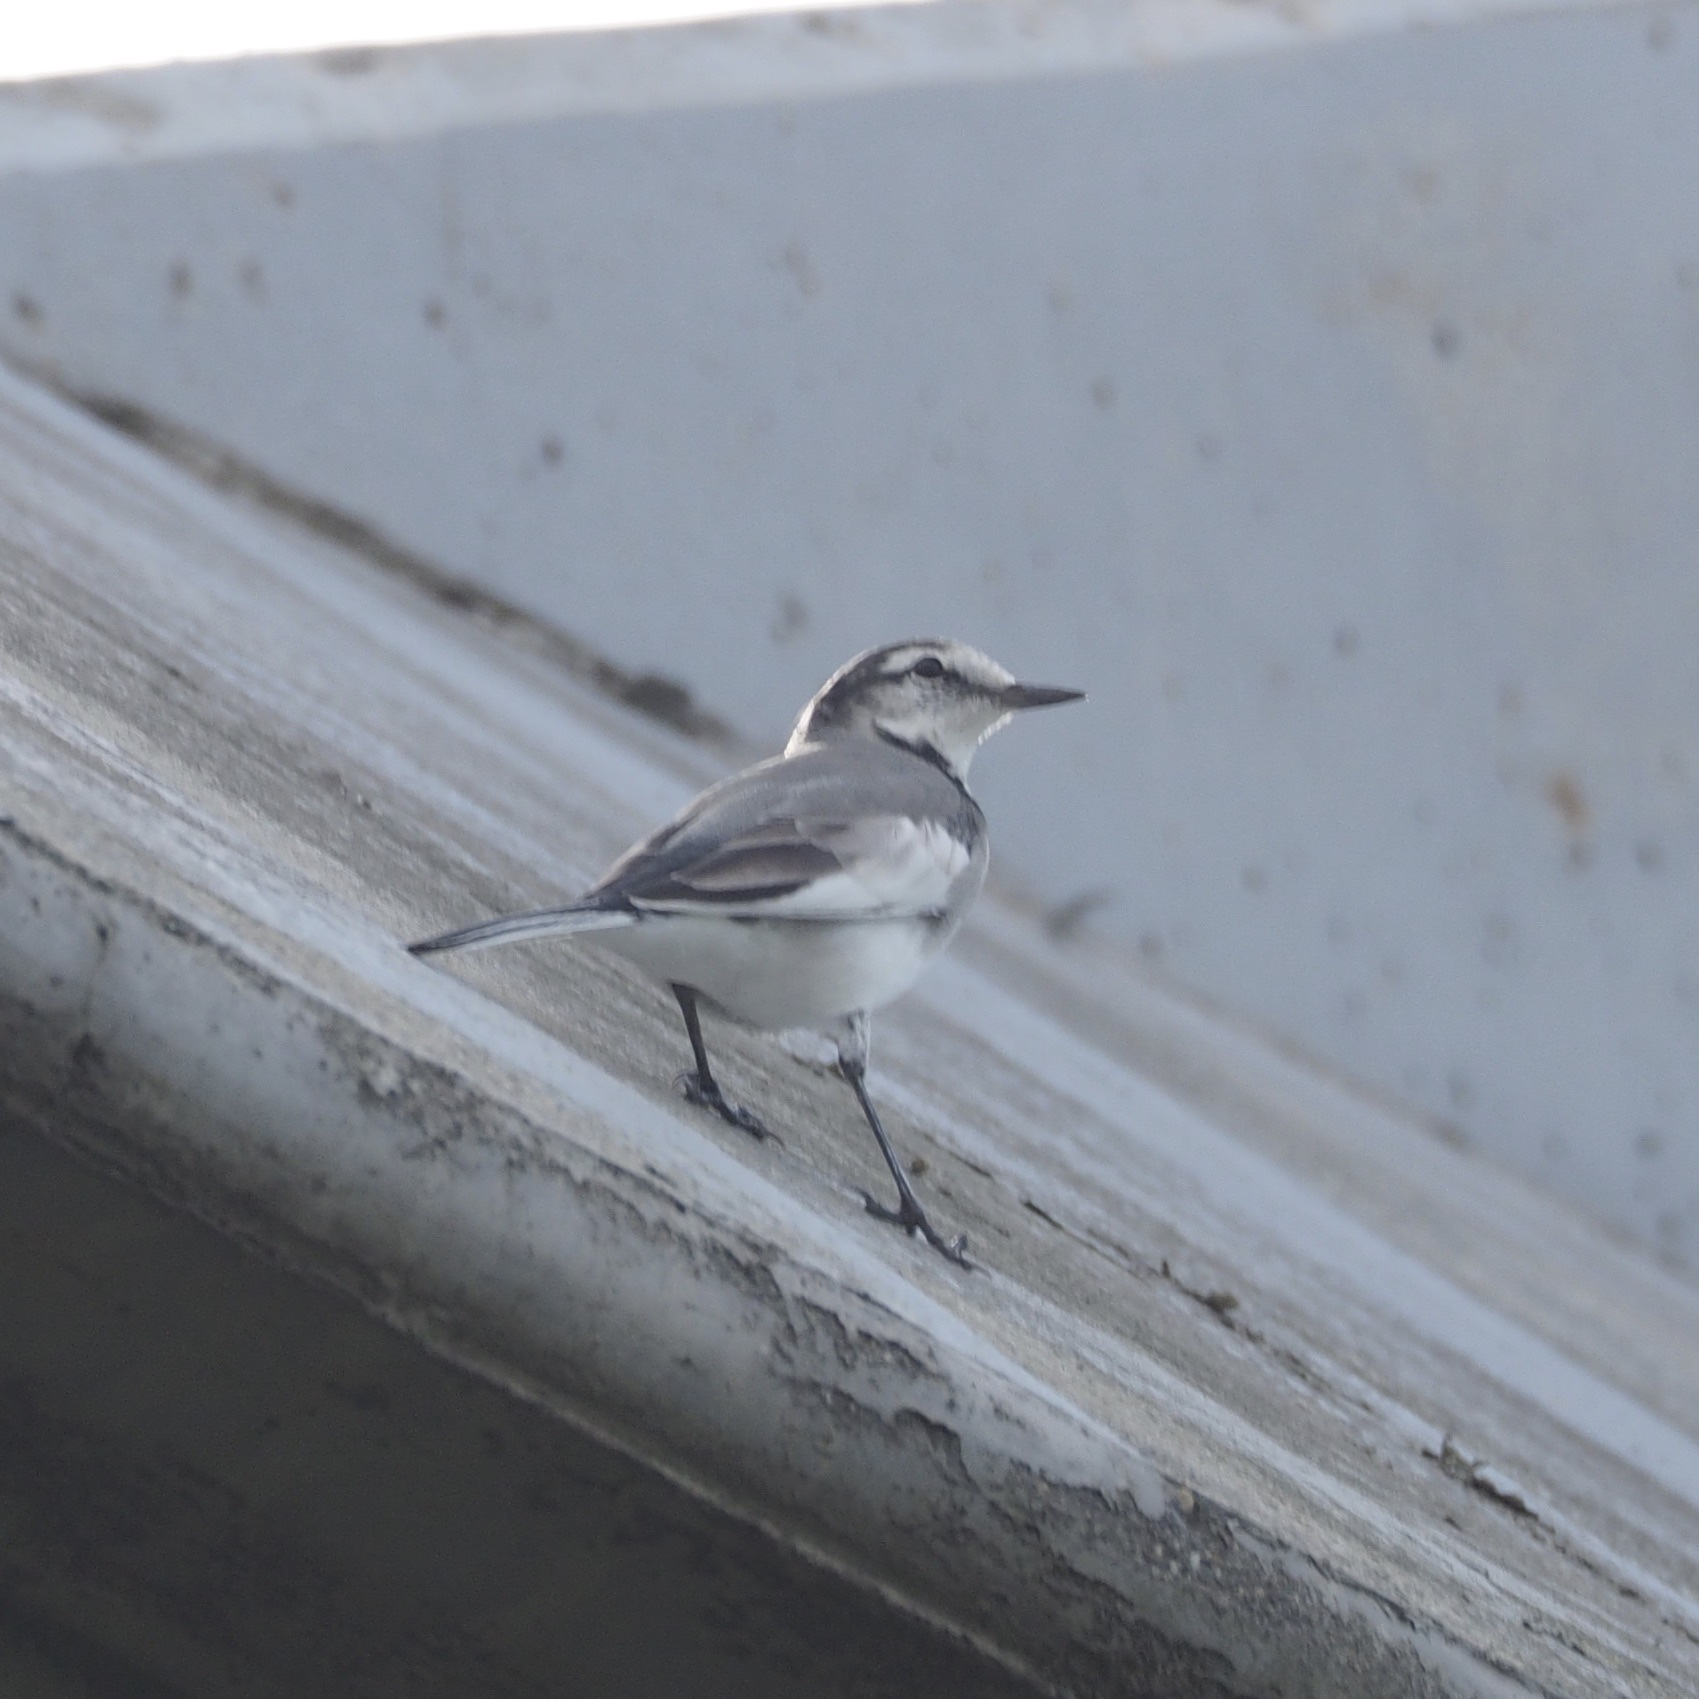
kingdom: Animalia
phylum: Chordata
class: Aves
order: Passeriformes
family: Motacillidae
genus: Motacilla
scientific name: Motacilla alba
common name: White wagtail
